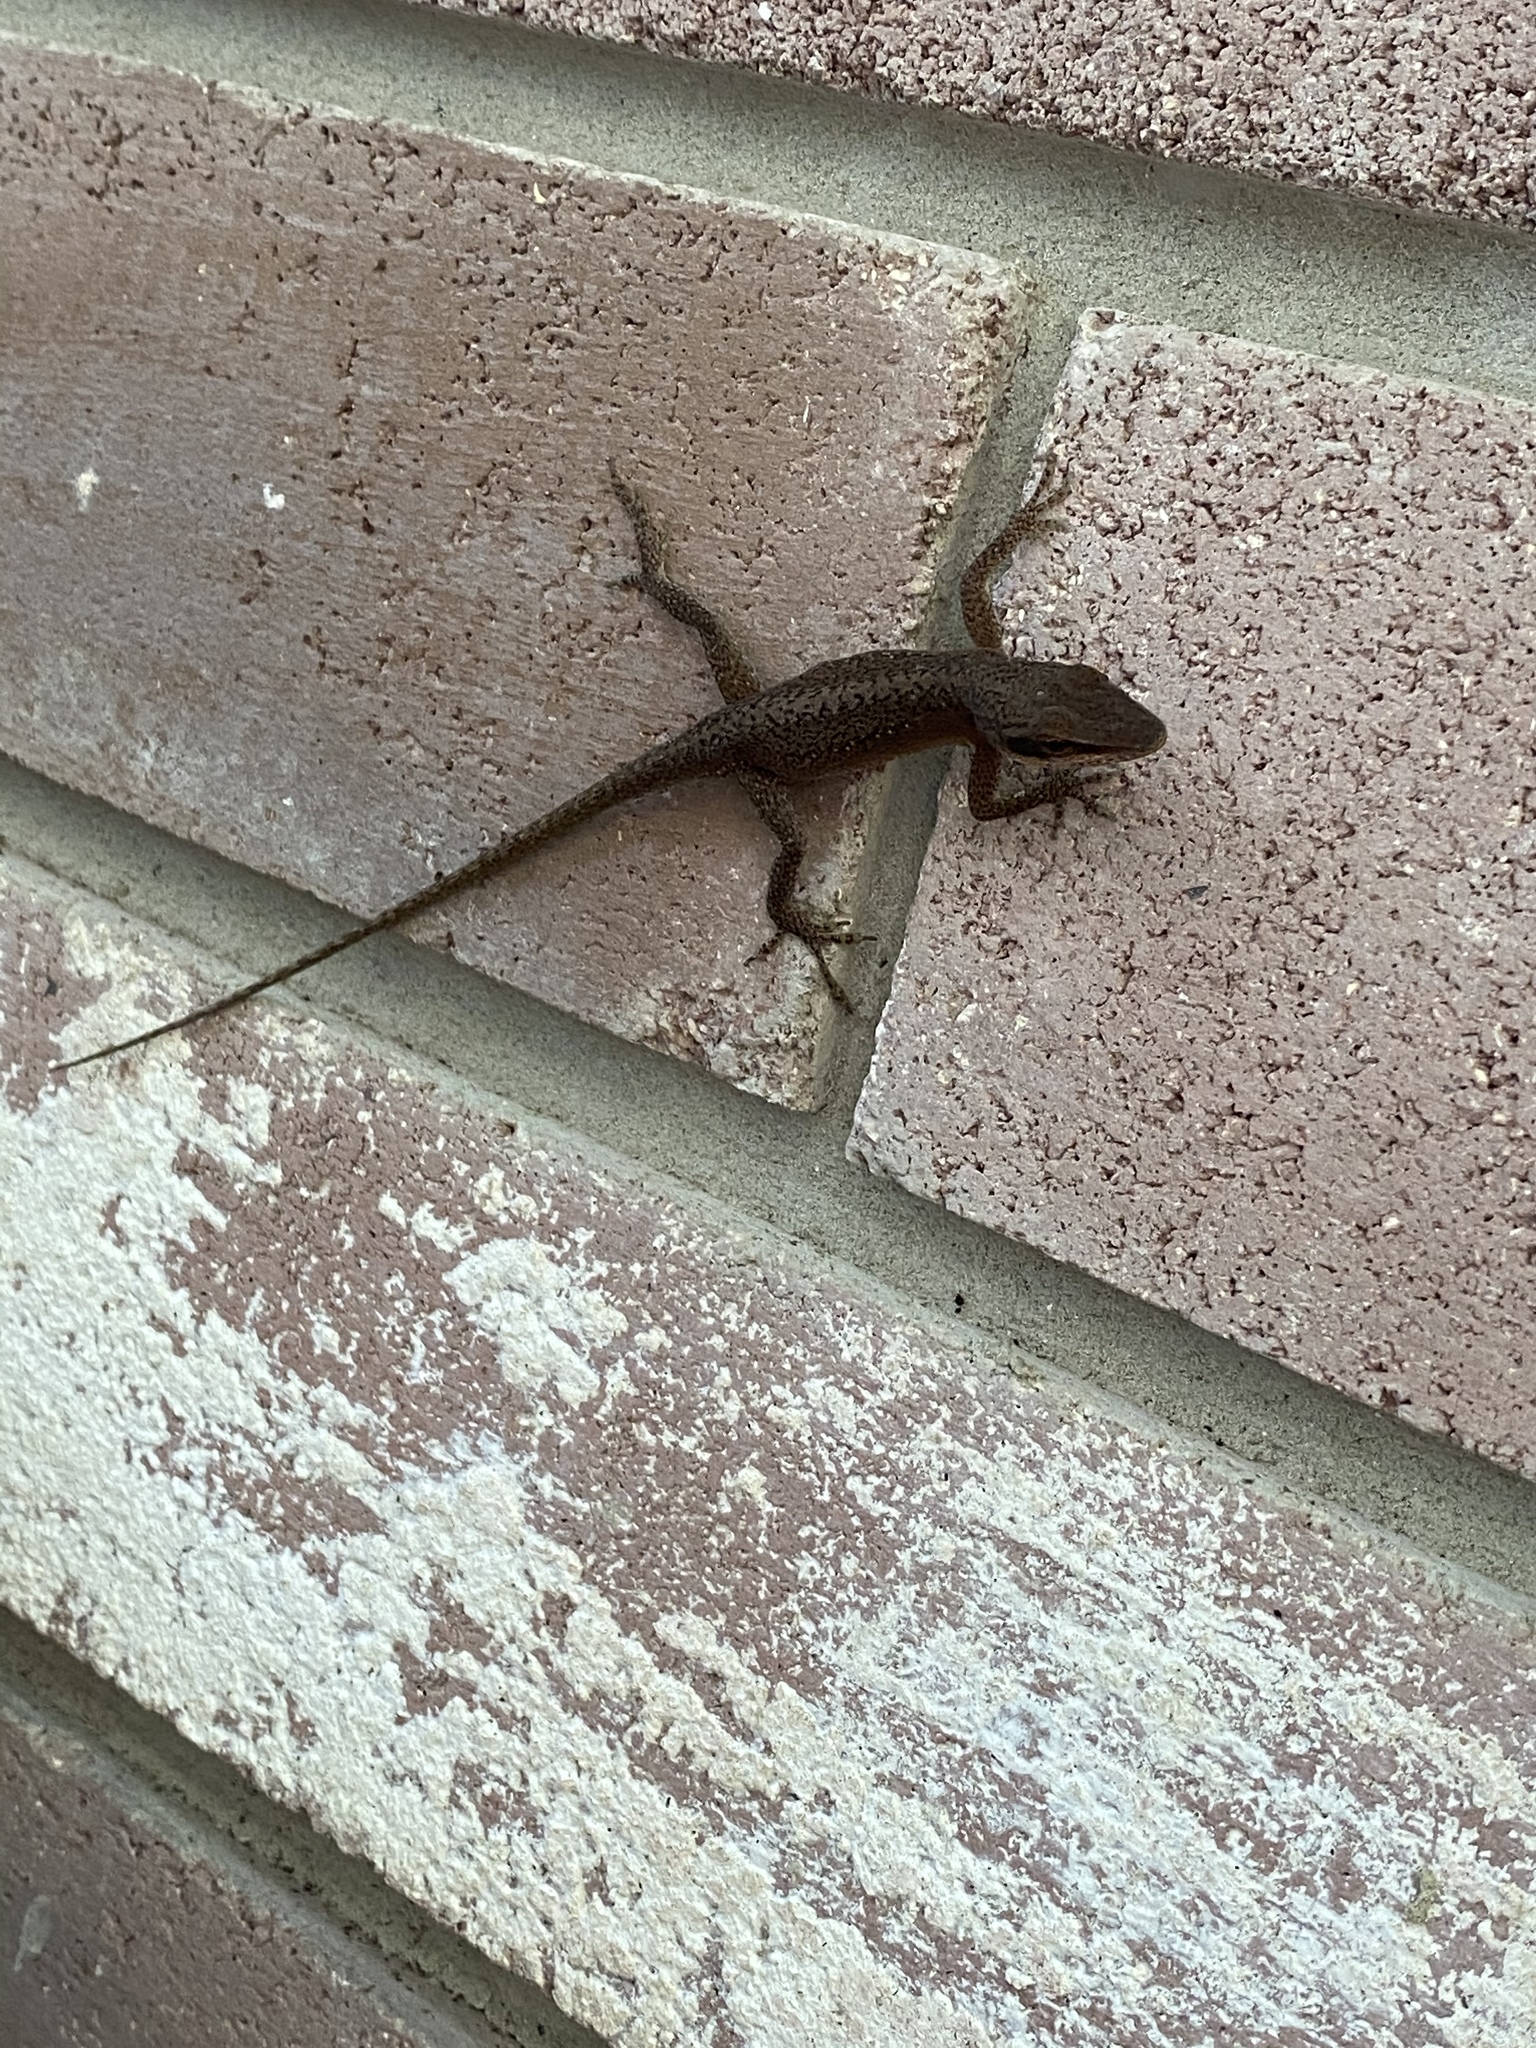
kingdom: Animalia
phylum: Chordata
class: Squamata
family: Dactyloidae
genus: Anolis
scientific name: Anolis carolinensis
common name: Green anole
